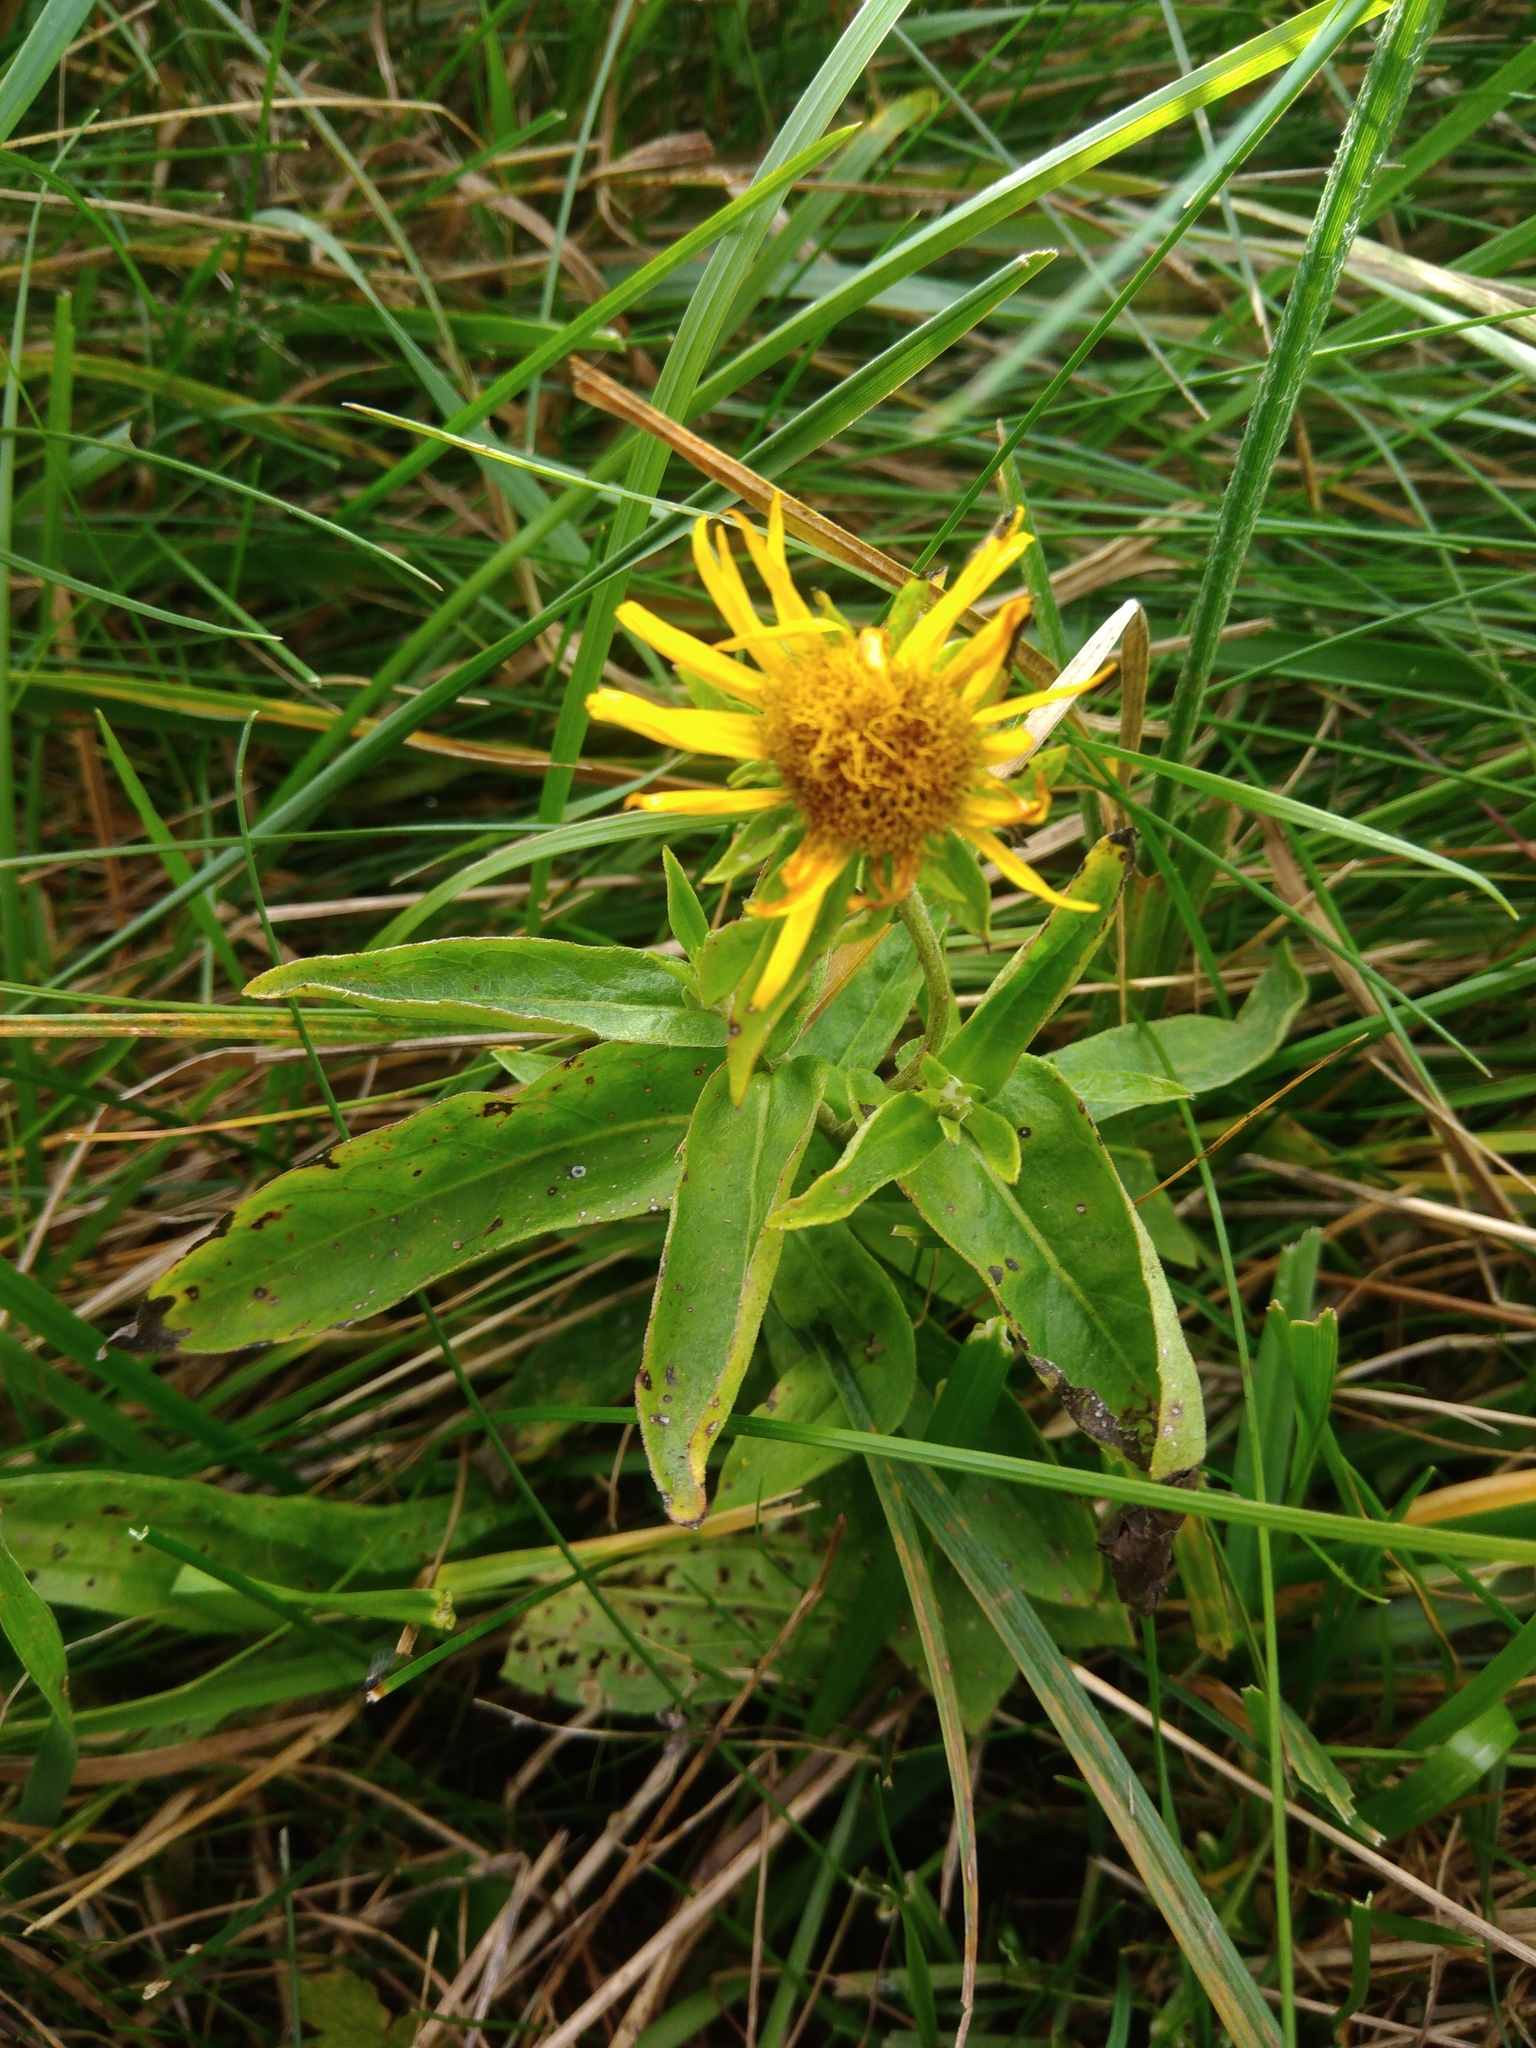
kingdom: Plantae
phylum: Tracheophyta
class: Magnoliopsida
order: Asterales
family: Asteraceae
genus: Pentanema
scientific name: Pentanema britannicum
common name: British elecampane
